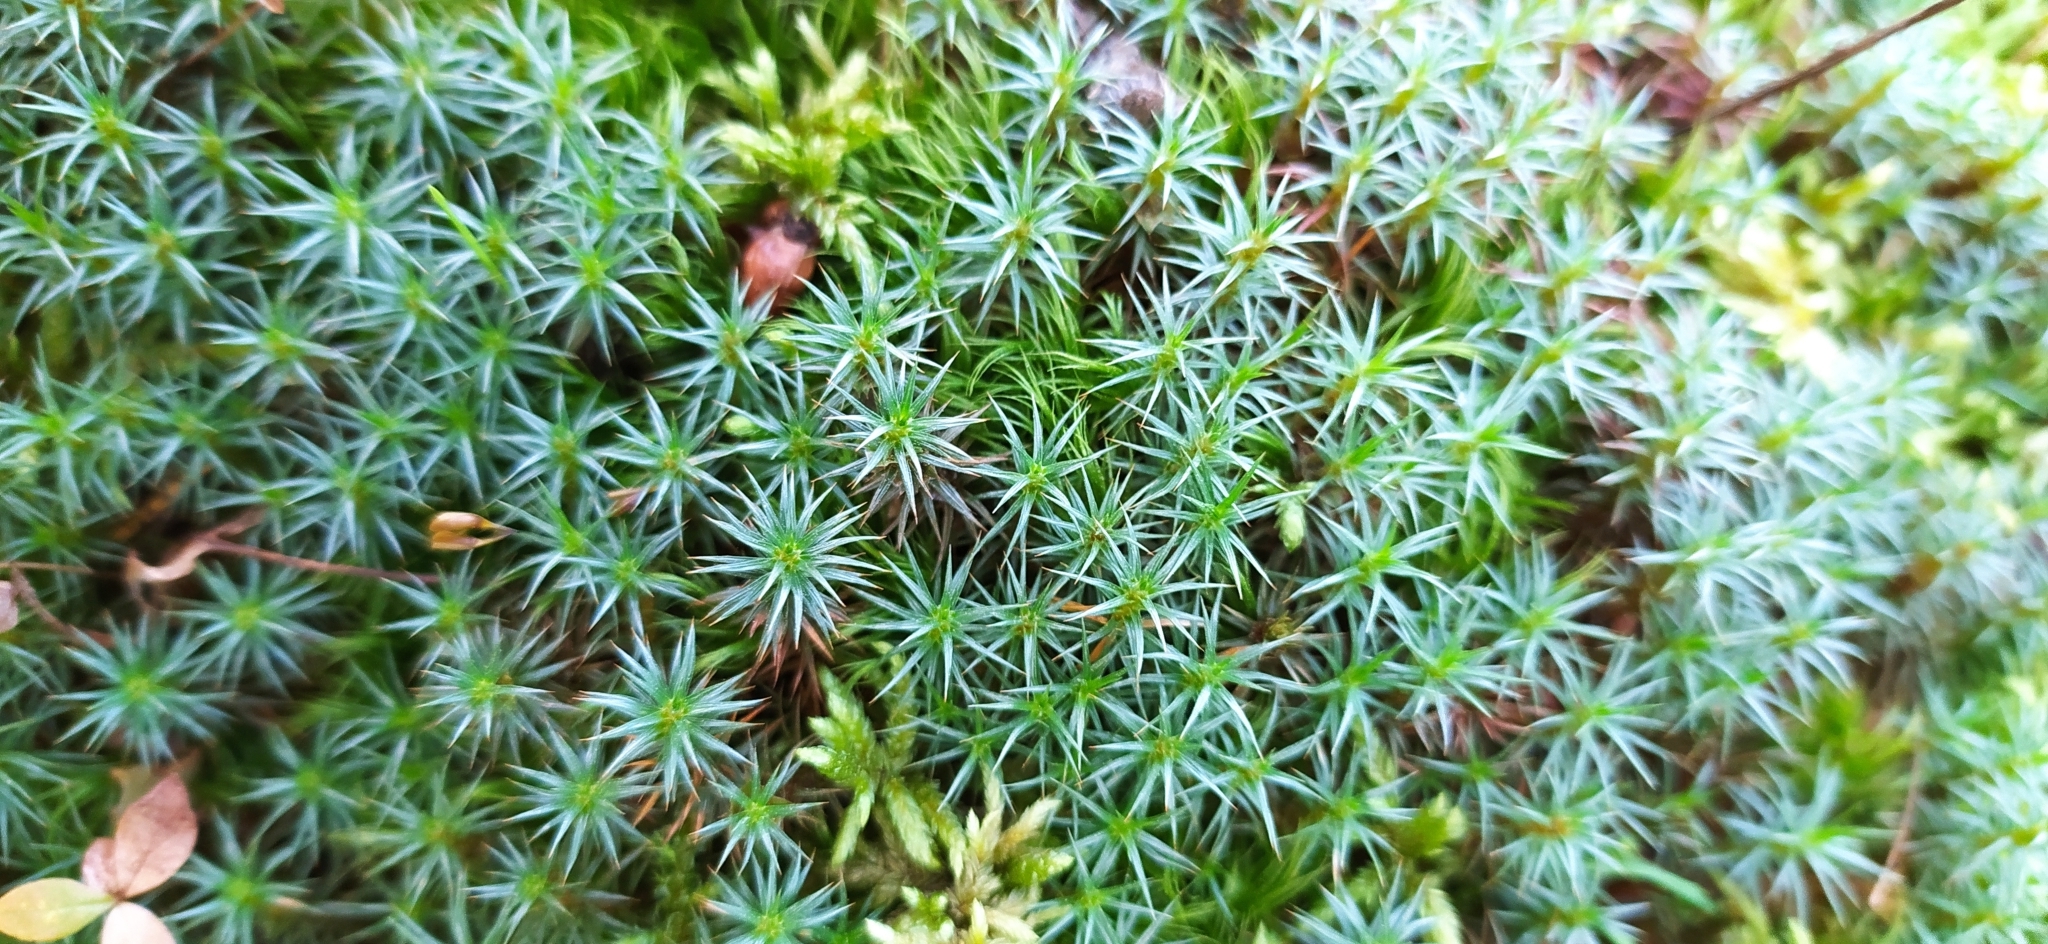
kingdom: Plantae
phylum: Bryophyta
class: Polytrichopsida
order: Polytrichales
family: Polytrichaceae
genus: Polytrichum
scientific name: Polytrichum juniperinum
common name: Juniper haircap moss
